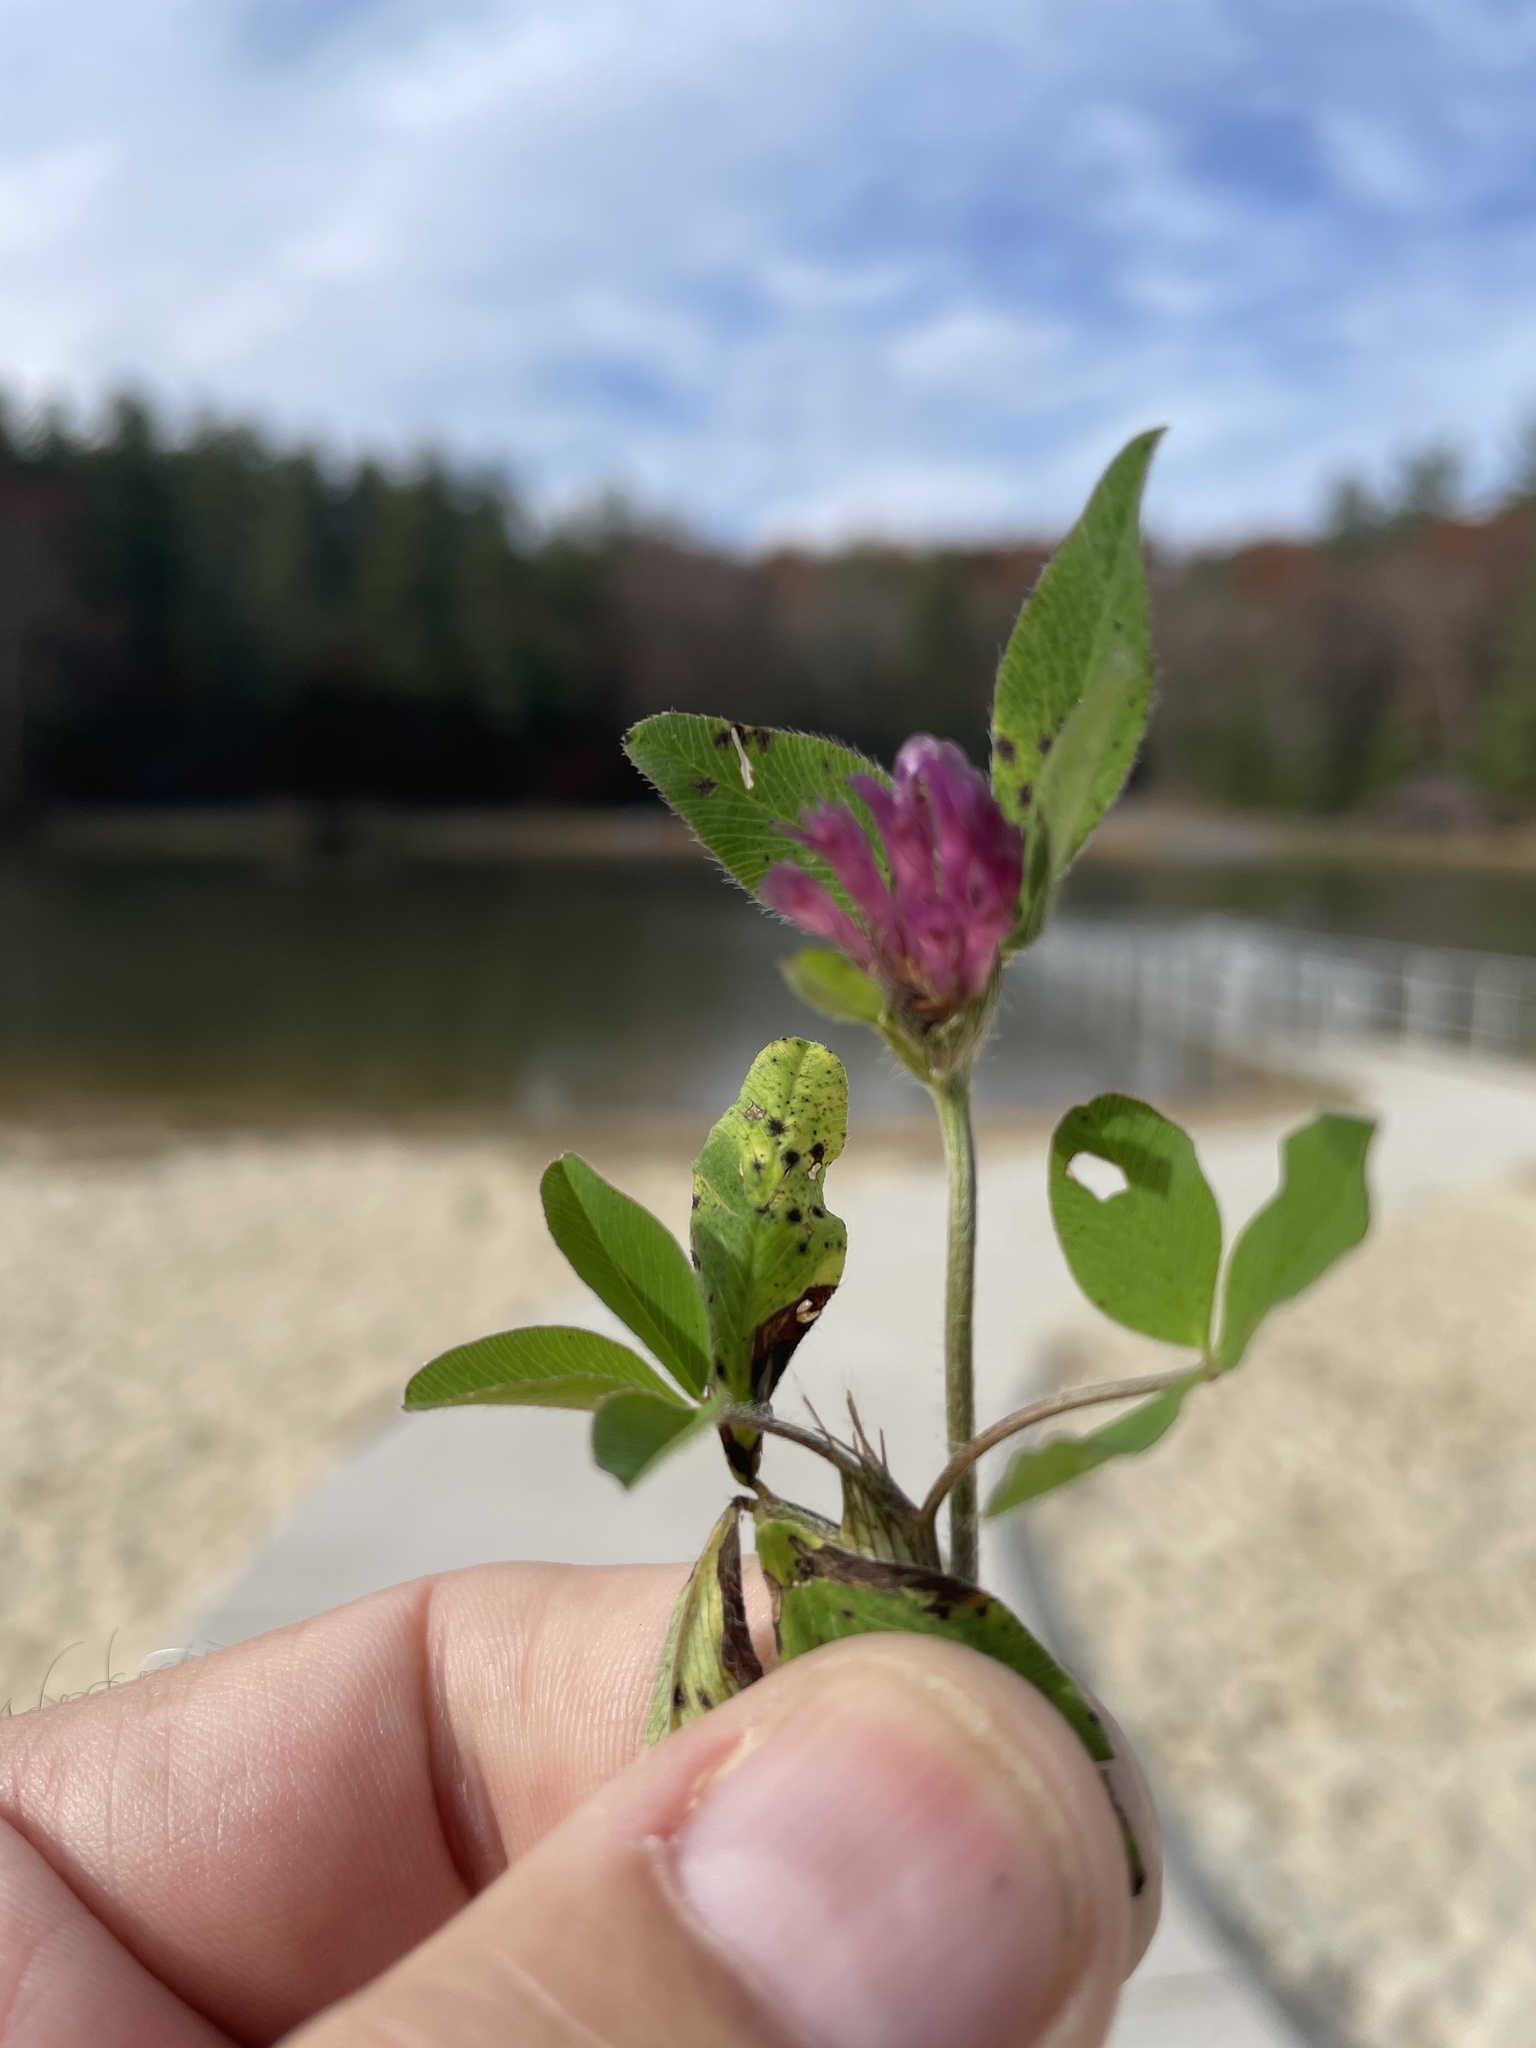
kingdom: Plantae
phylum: Tracheophyta
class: Magnoliopsida
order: Fabales
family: Fabaceae
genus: Trifolium
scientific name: Trifolium pratense
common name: Red clover
